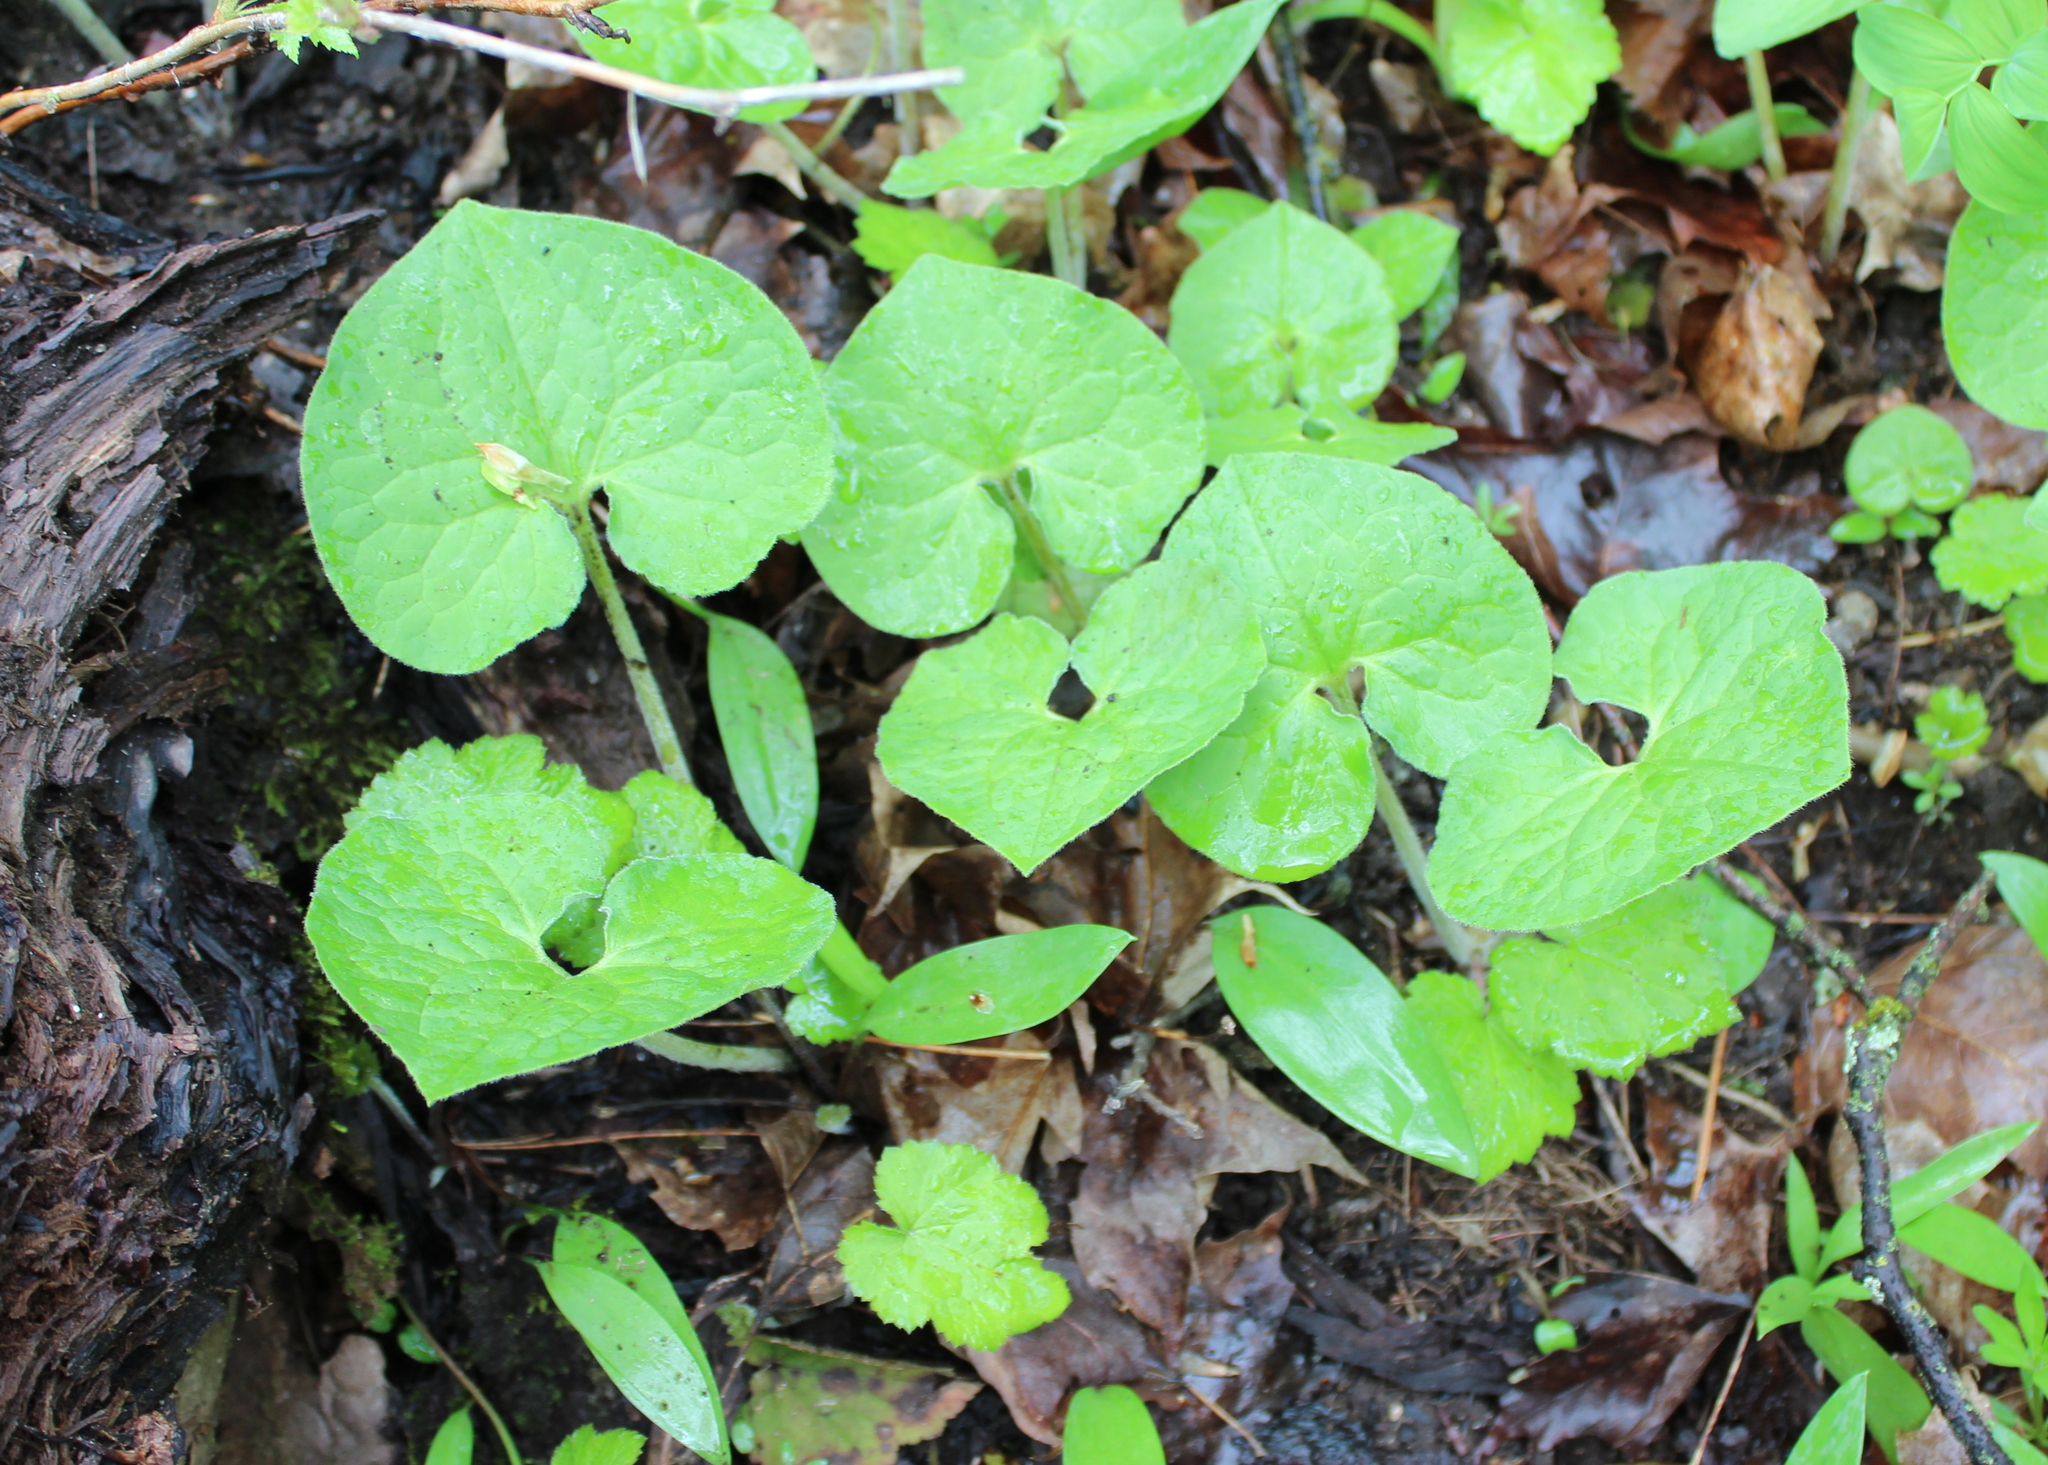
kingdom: Plantae
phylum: Tracheophyta
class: Magnoliopsida
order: Piperales
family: Aristolochiaceae
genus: Asarum
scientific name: Asarum canadense
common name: Wild ginger
